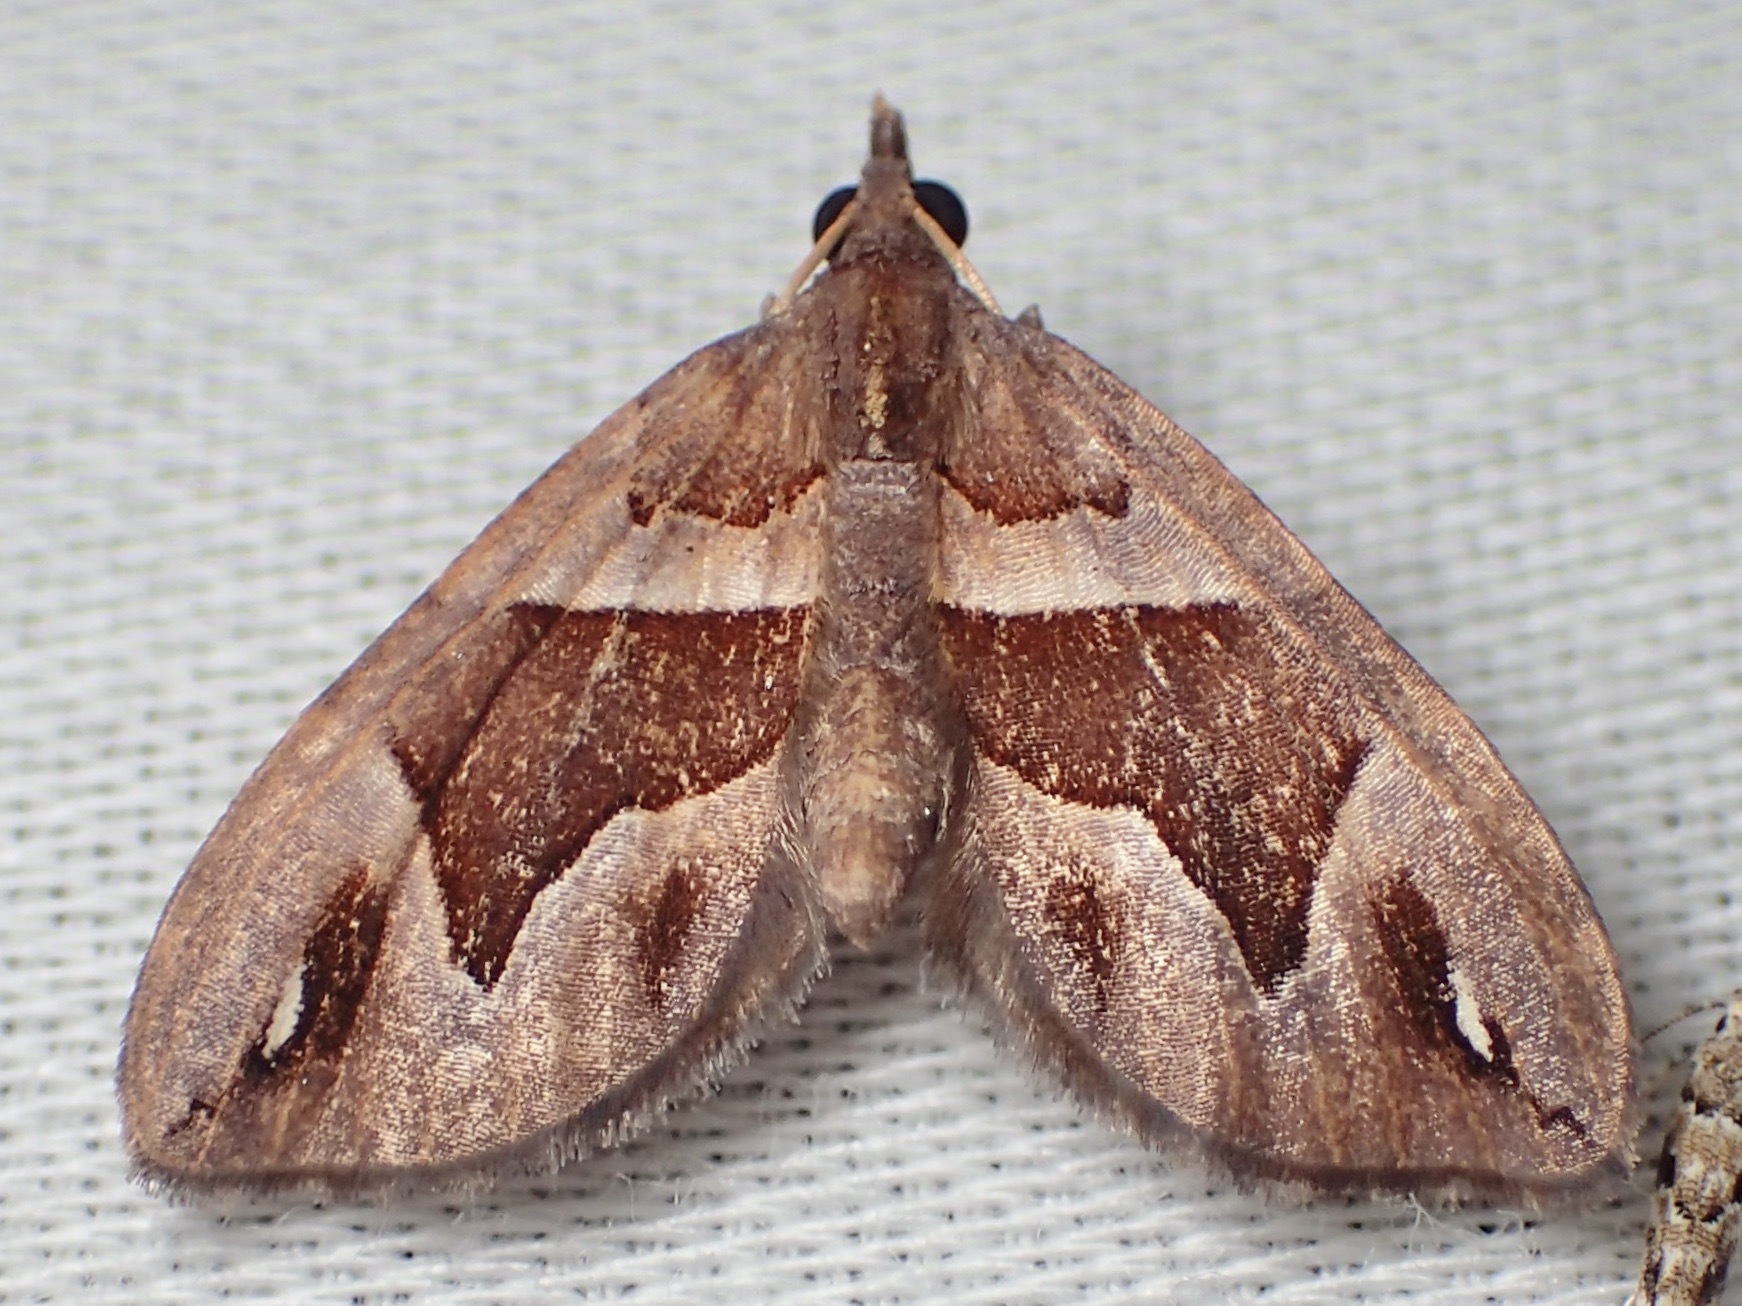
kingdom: Animalia
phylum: Arthropoda
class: Insecta
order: Lepidoptera
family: Geometridae
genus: Chaetolopha
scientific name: Chaetolopha oxyntis
